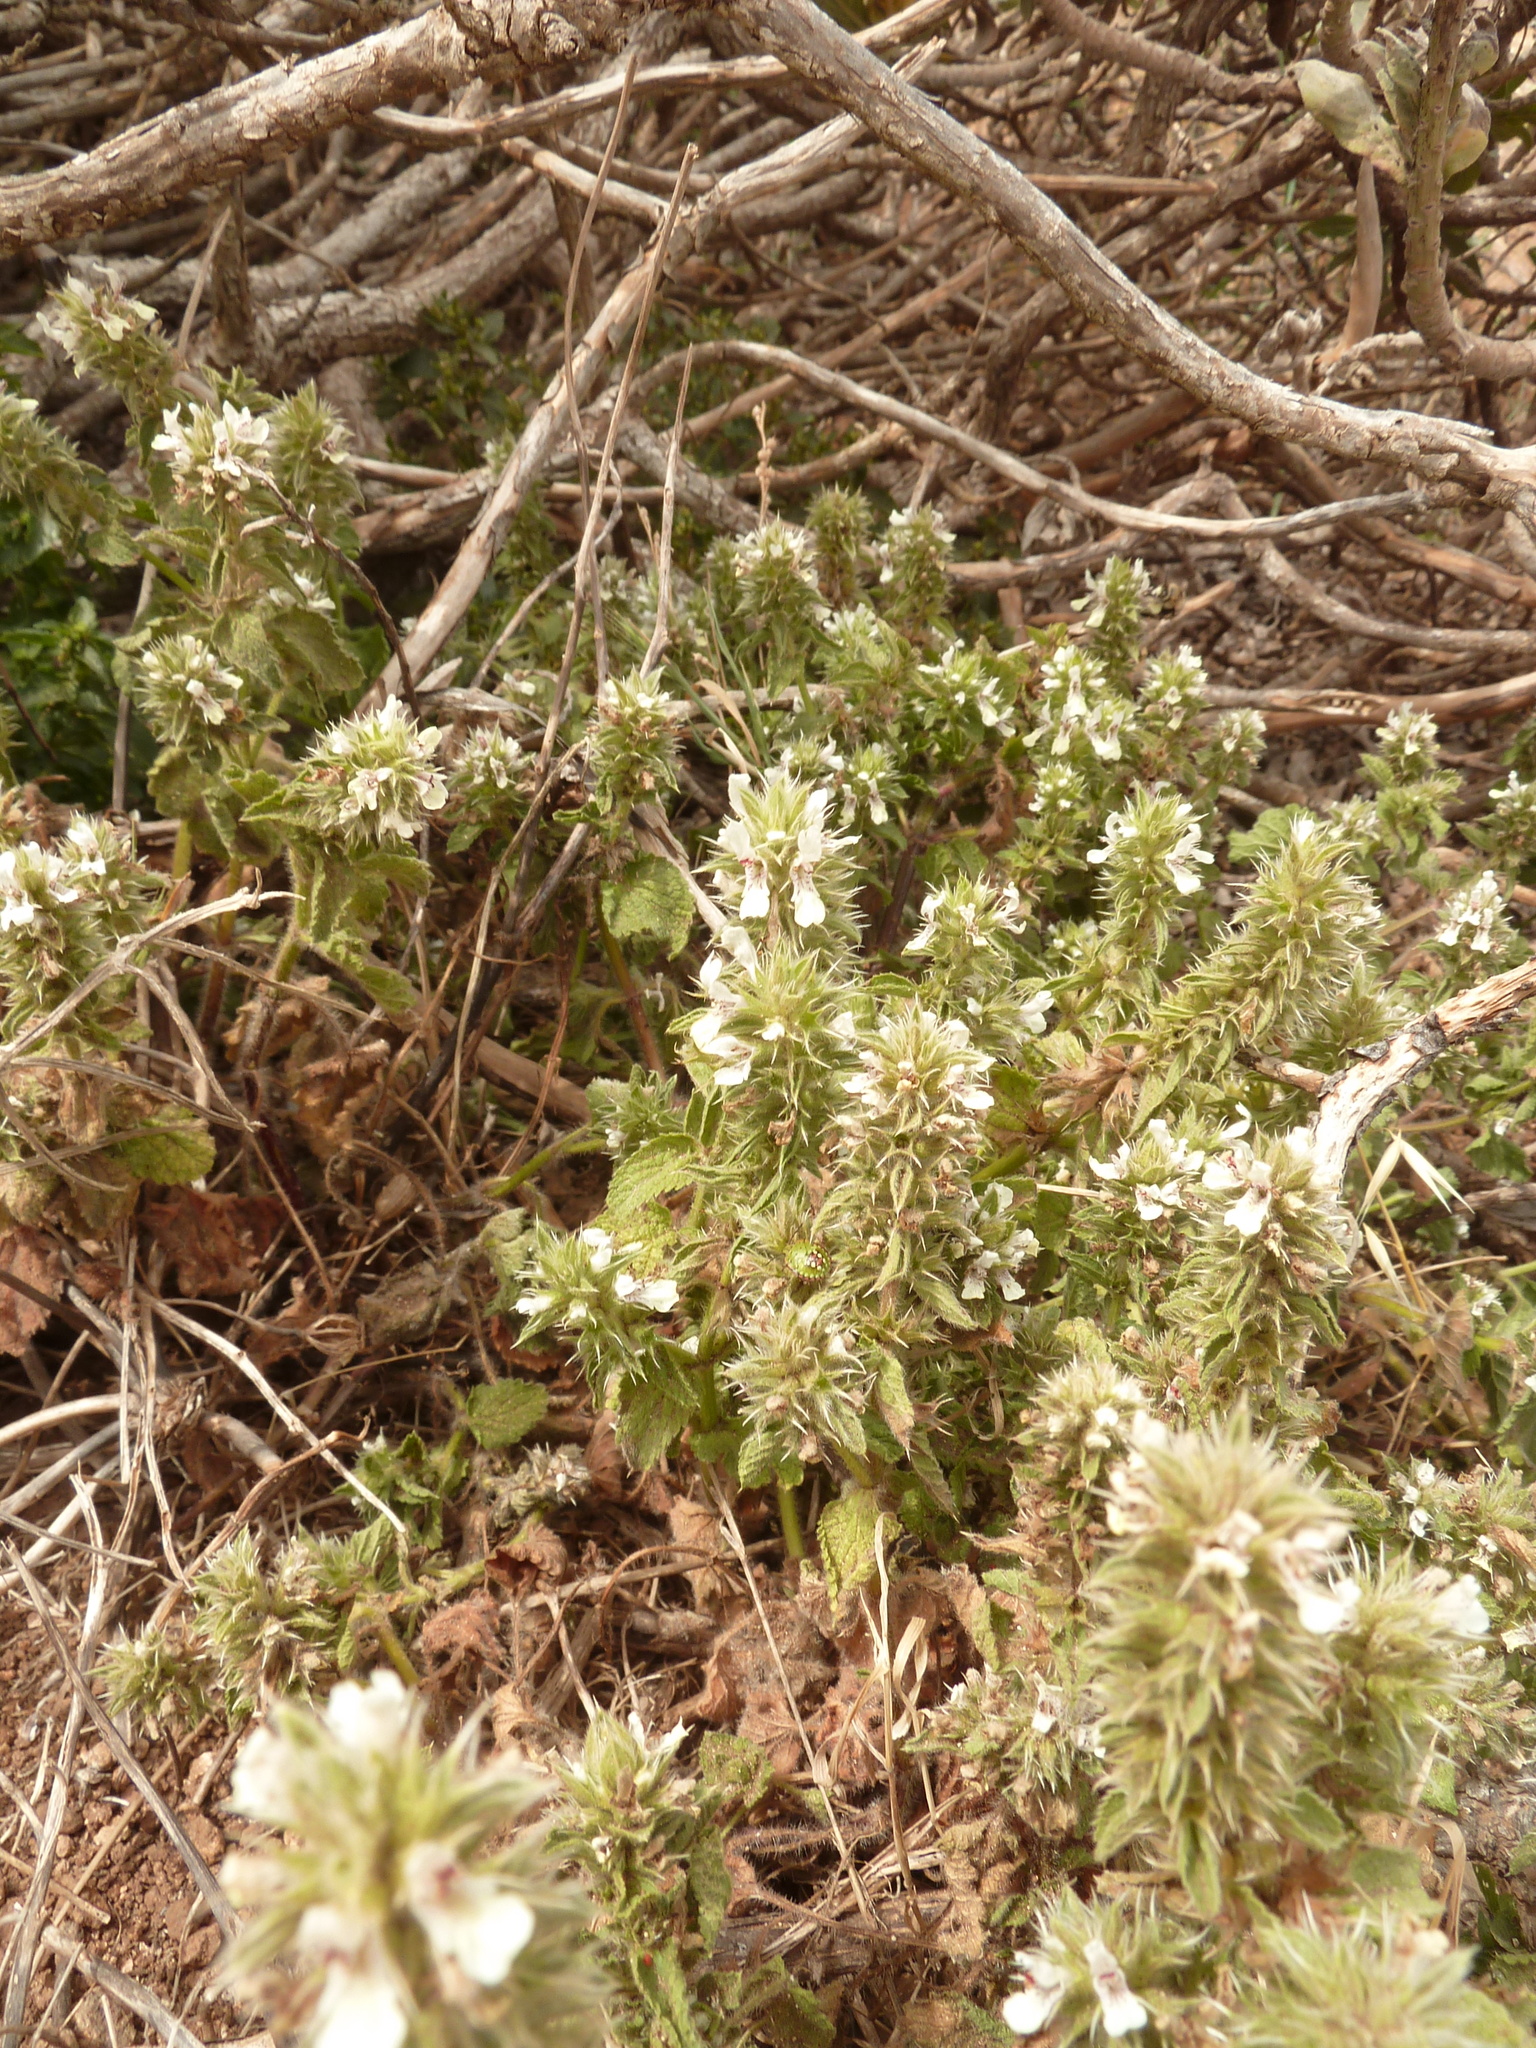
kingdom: Plantae
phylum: Tracheophyta
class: Magnoliopsida
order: Lamiales
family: Lamiaceae
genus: Stachys
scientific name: Stachys ocymastrum
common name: Italian hedgenettle
